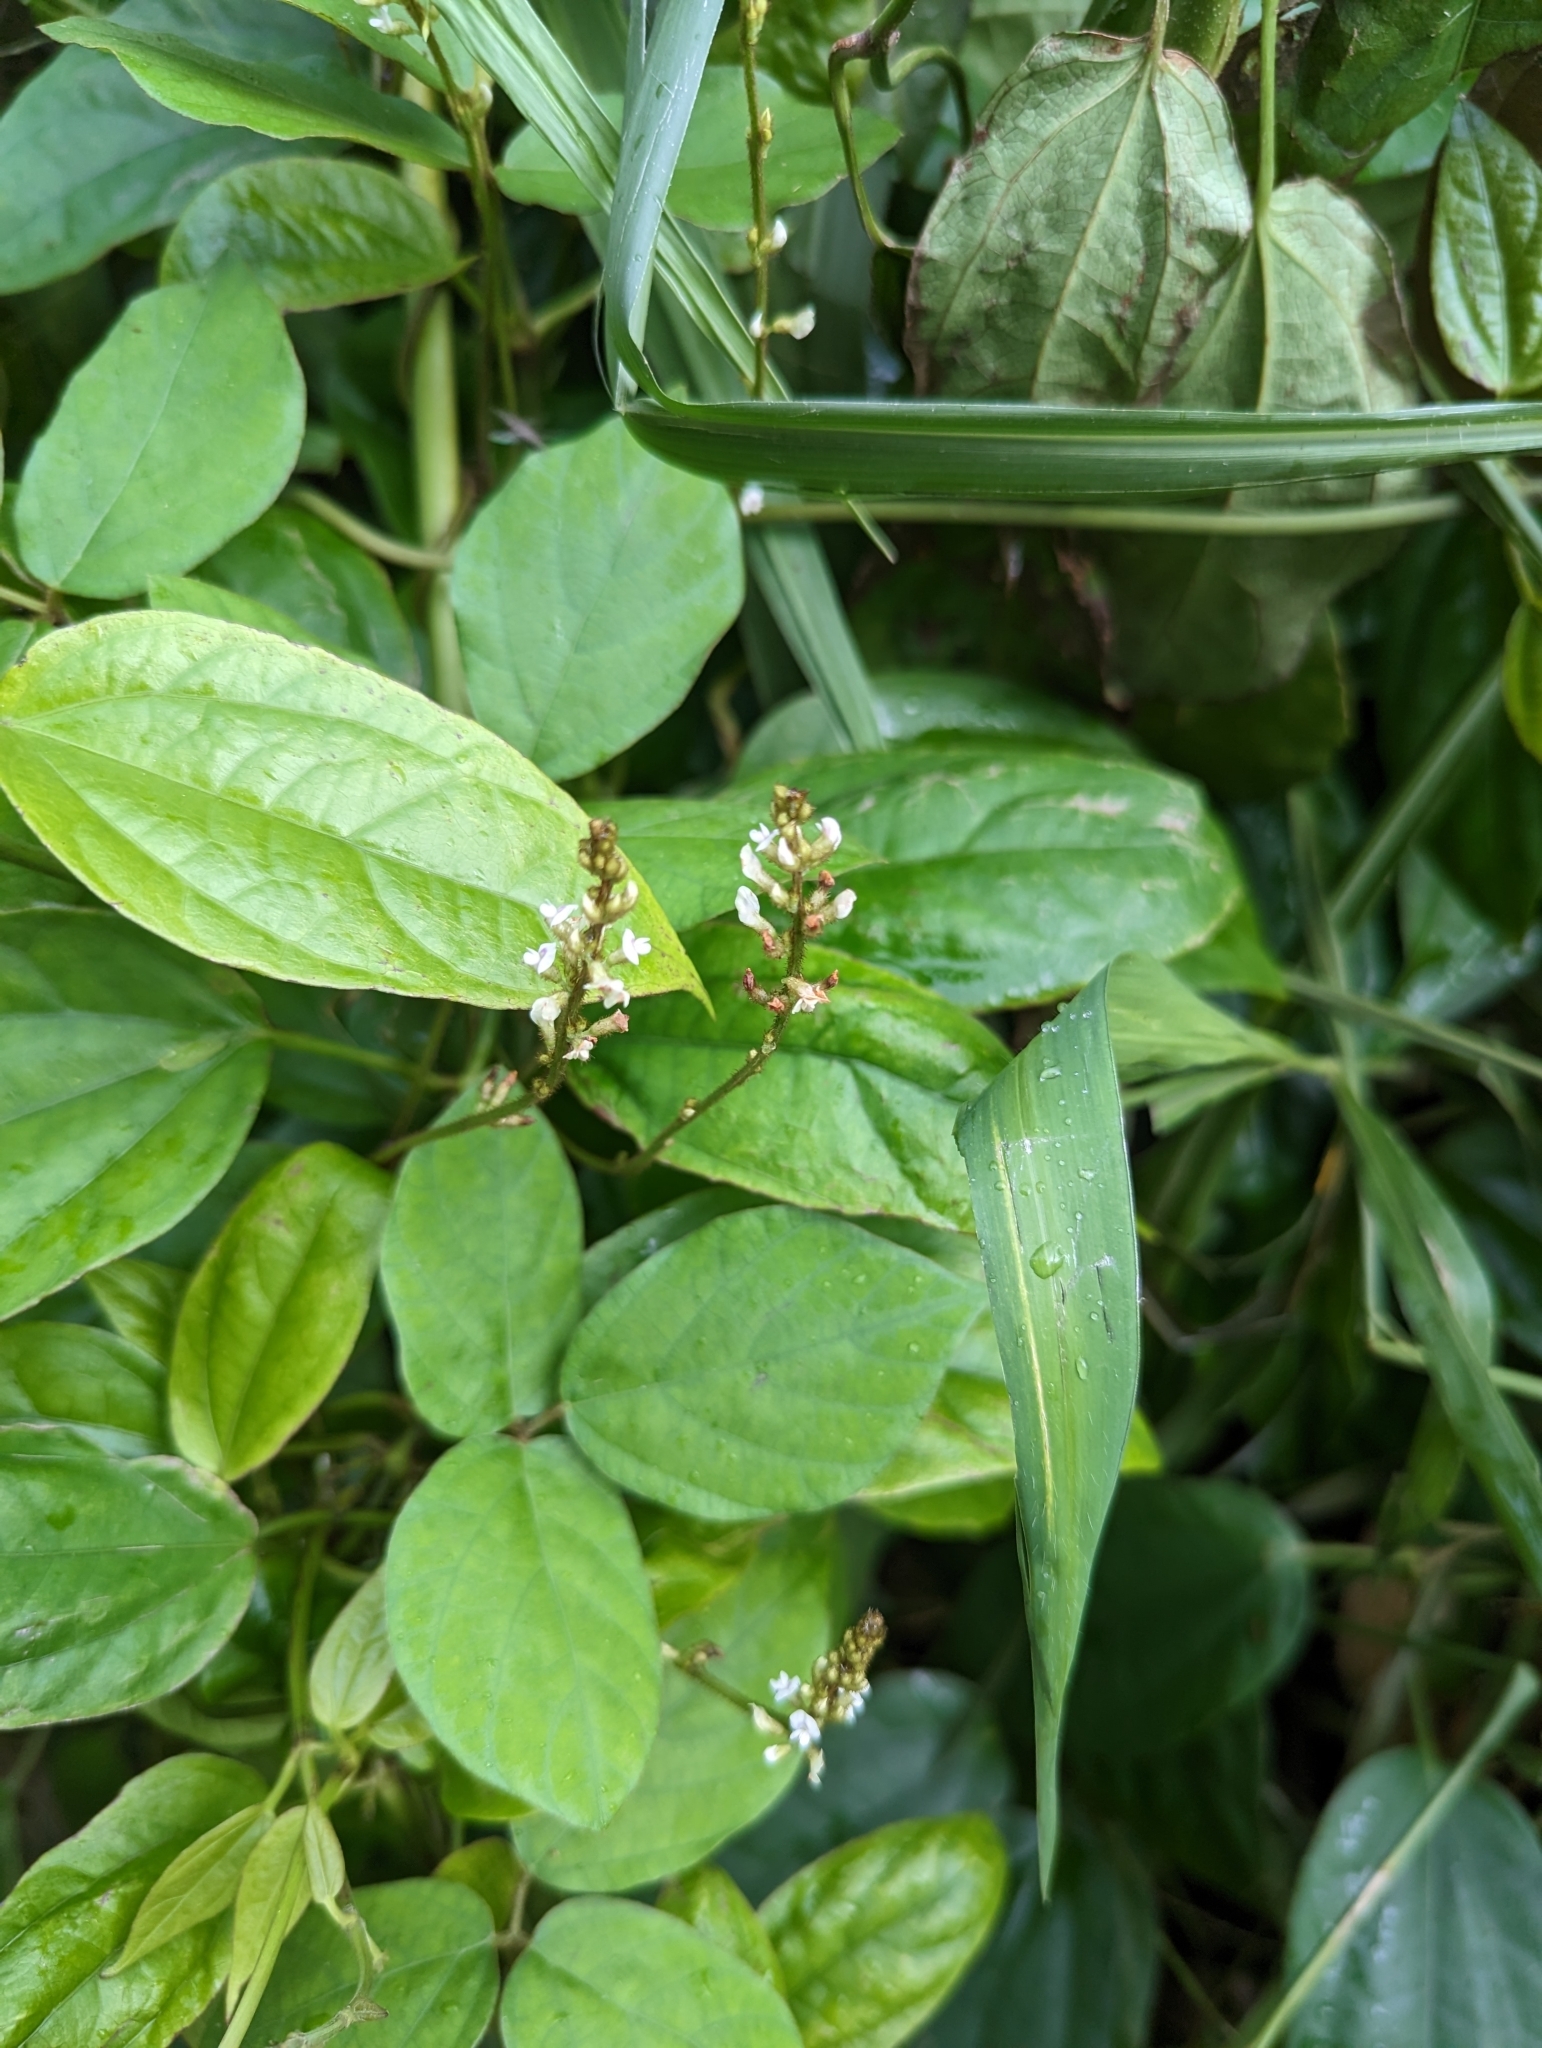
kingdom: Plantae
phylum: Tracheophyta
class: Magnoliopsida
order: Fabales
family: Fabaceae
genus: Neonotonia
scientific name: Neonotonia wightii
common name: Perennial soybean
